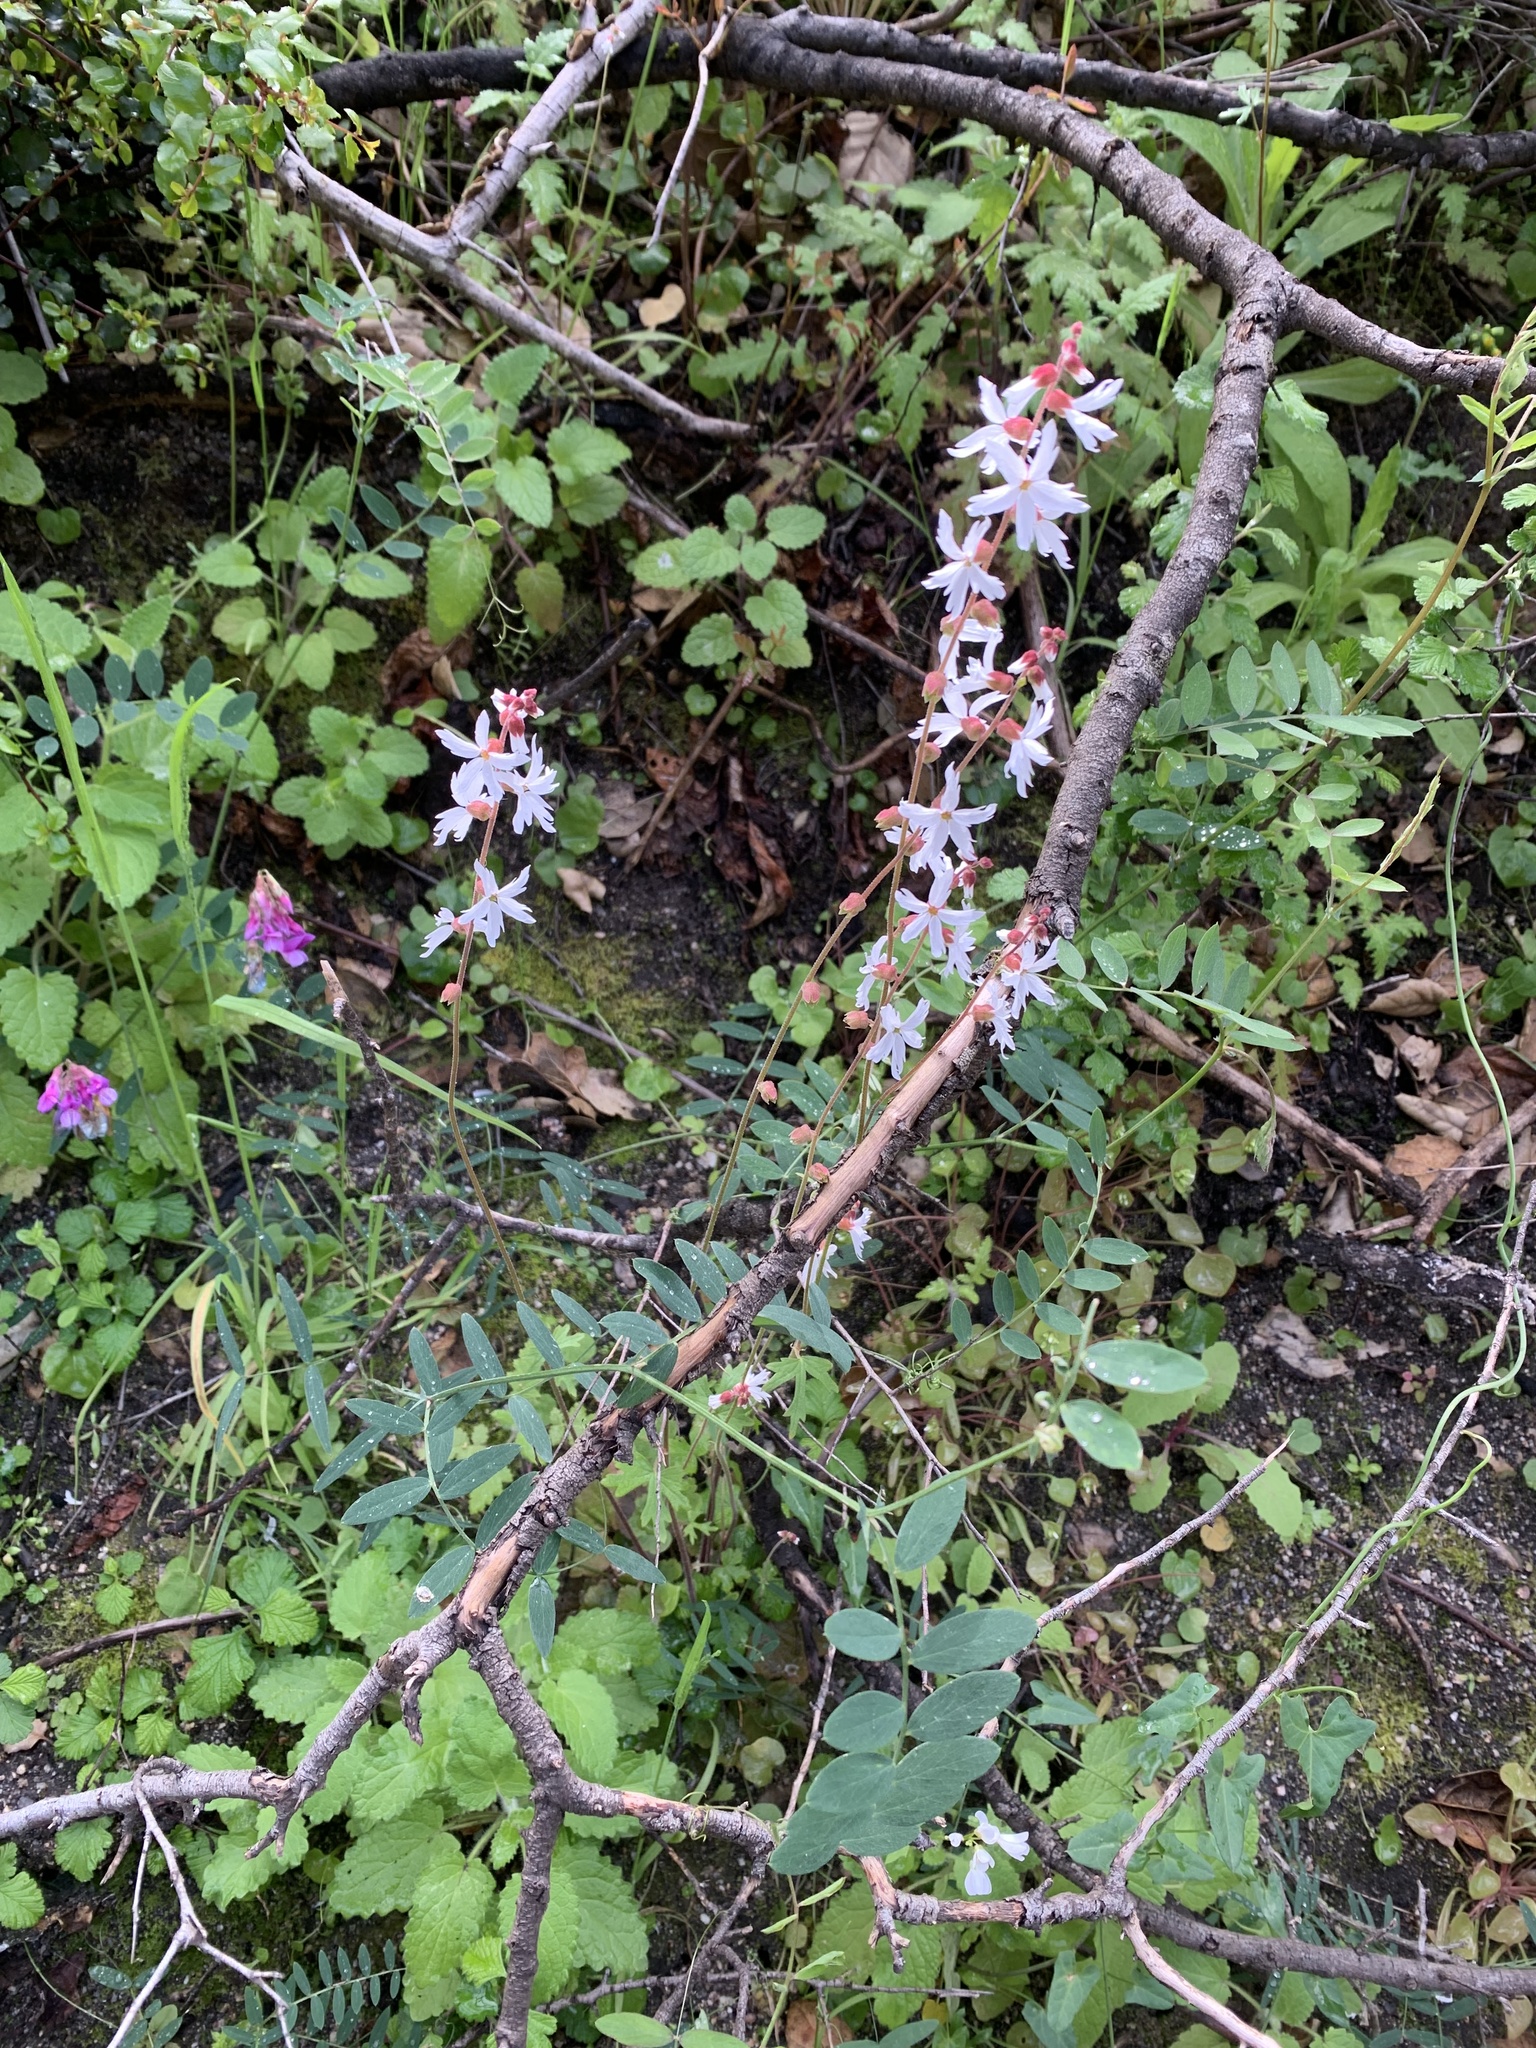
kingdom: Plantae
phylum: Tracheophyta
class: Magnoliopsida
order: Saxifragales
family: Saxifragaceae
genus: Lithophragma
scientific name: Lithophragma heterophyllum
